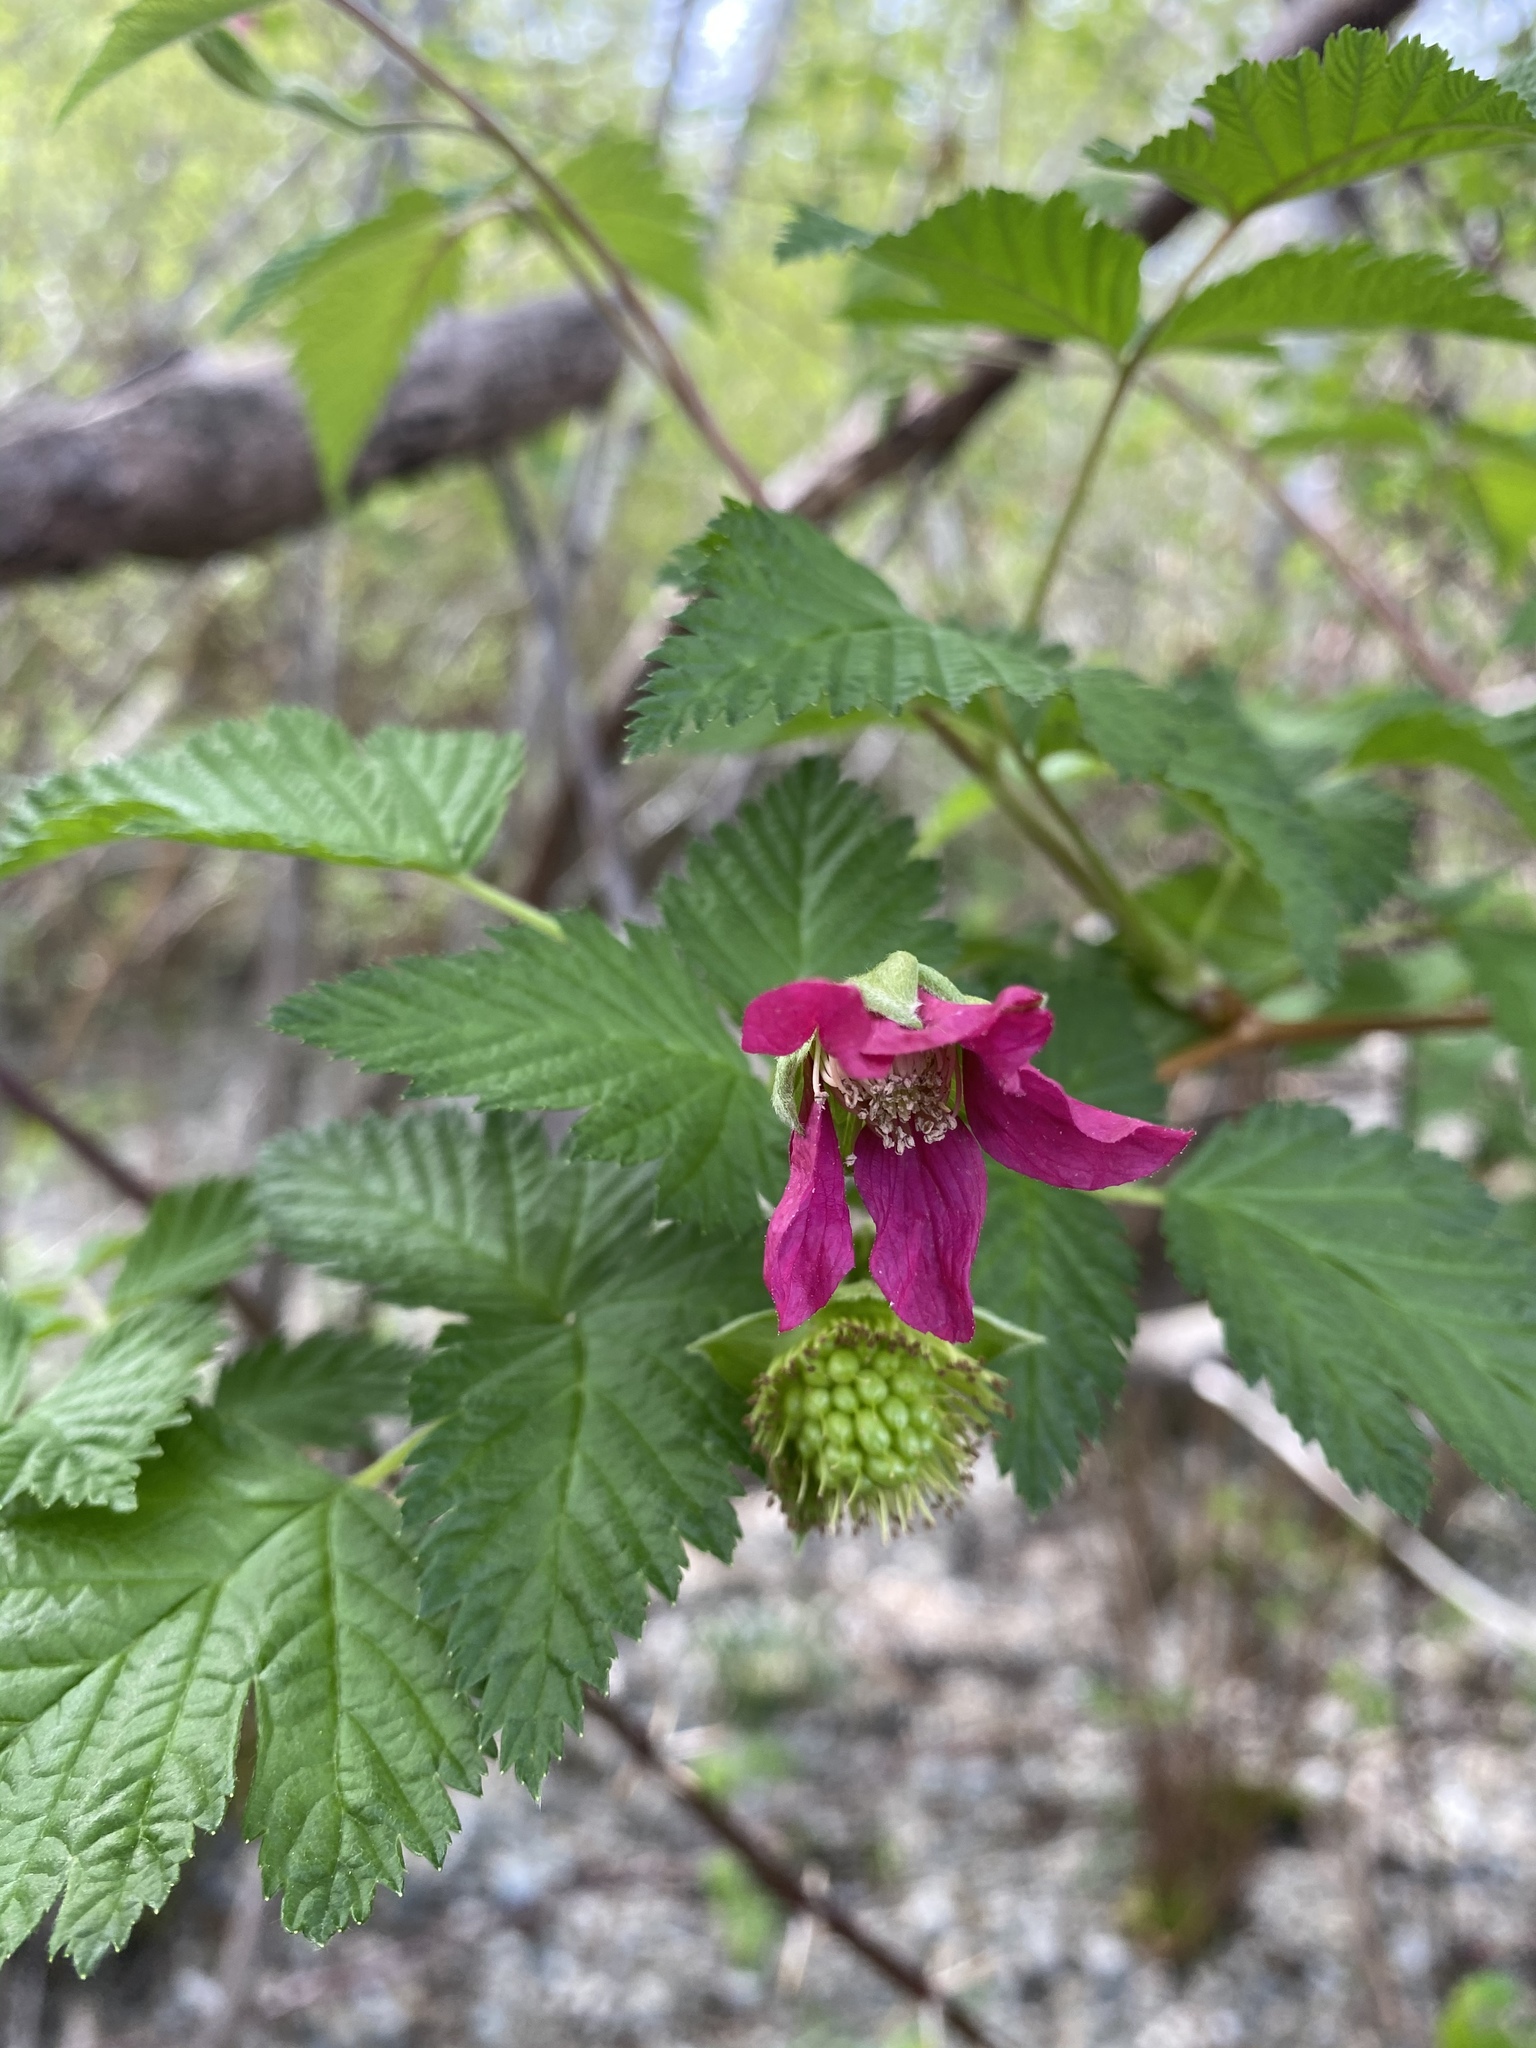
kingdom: Plantae
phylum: Tracheophyta
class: Magnoliopsida
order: Rosales
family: Rosaceae
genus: Rubus
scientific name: Rubus spectabilis
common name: Salmonberry
